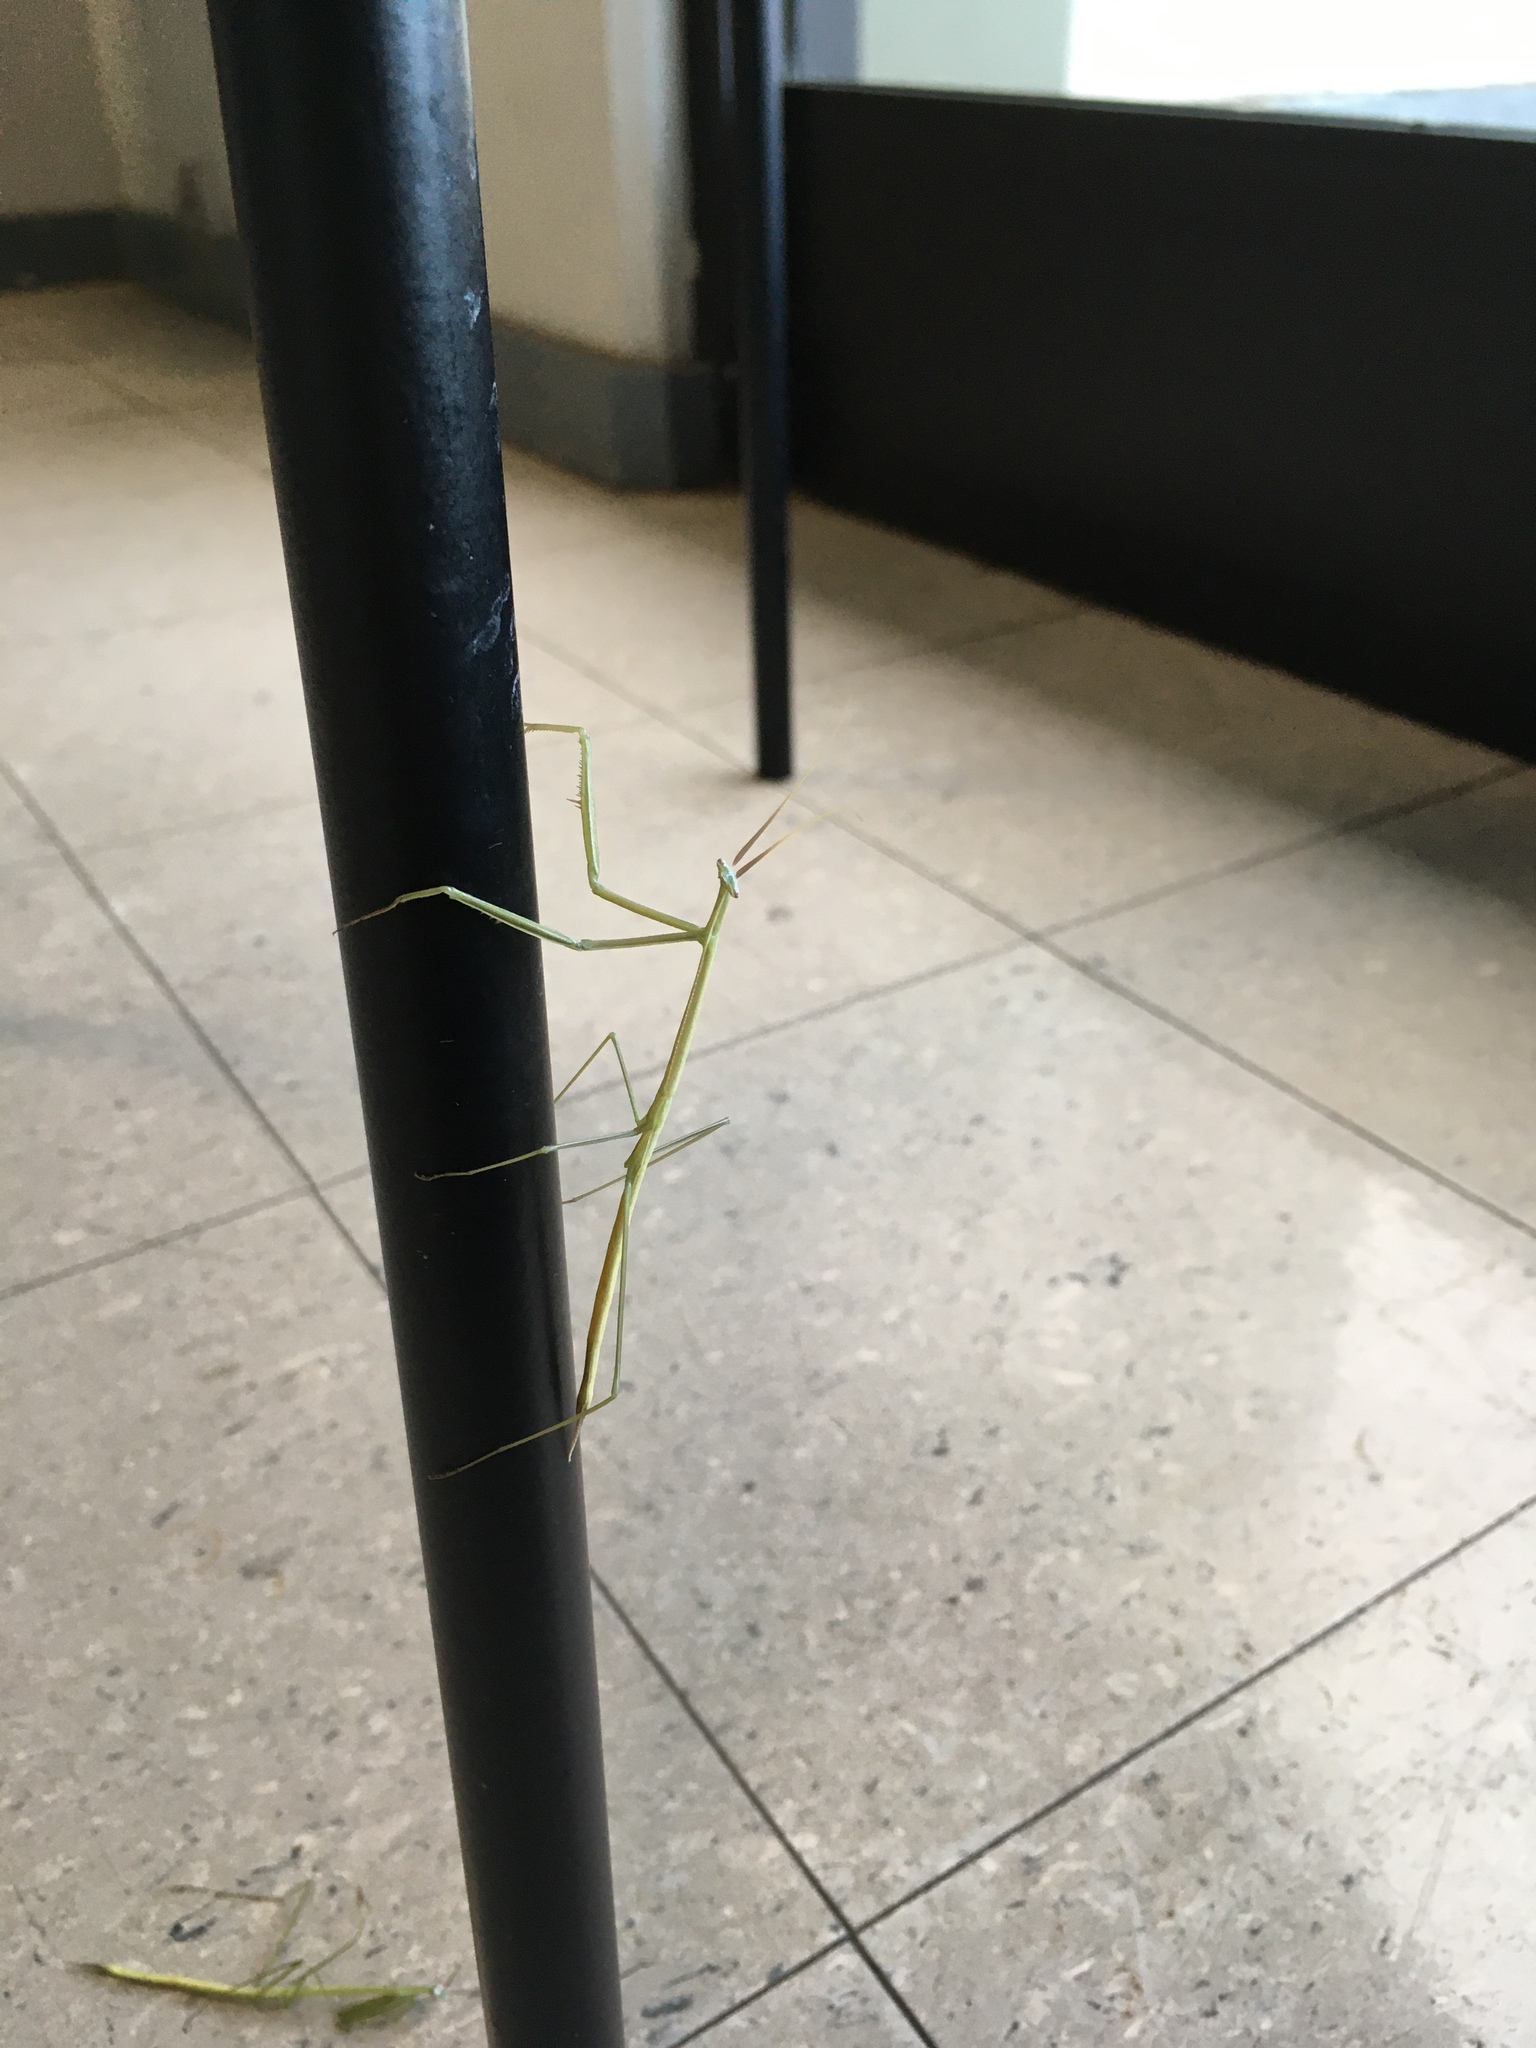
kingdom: Animalia
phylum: Arthropoda
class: Insecta
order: Mantodea
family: Coptopterygidae
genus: Brunneria
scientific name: Brunneria borealis
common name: Mantis
